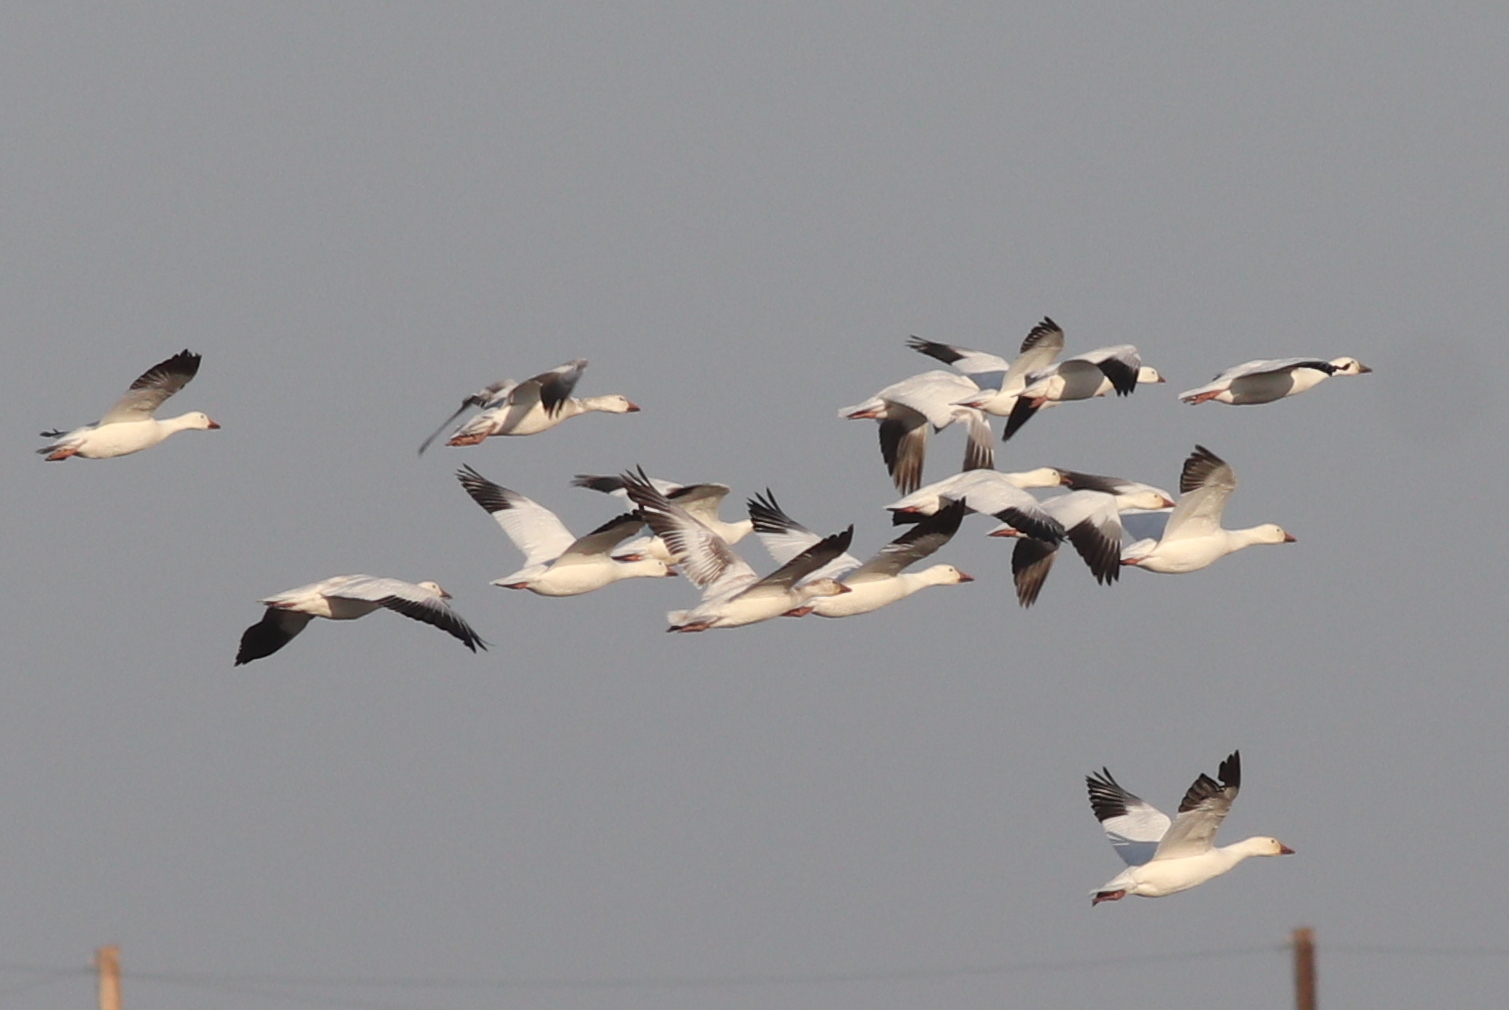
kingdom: Animalia
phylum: Chordata
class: Aves
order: Anseriformes
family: Anatidae
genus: Anser
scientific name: Anser caerulescens
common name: Snow goose
